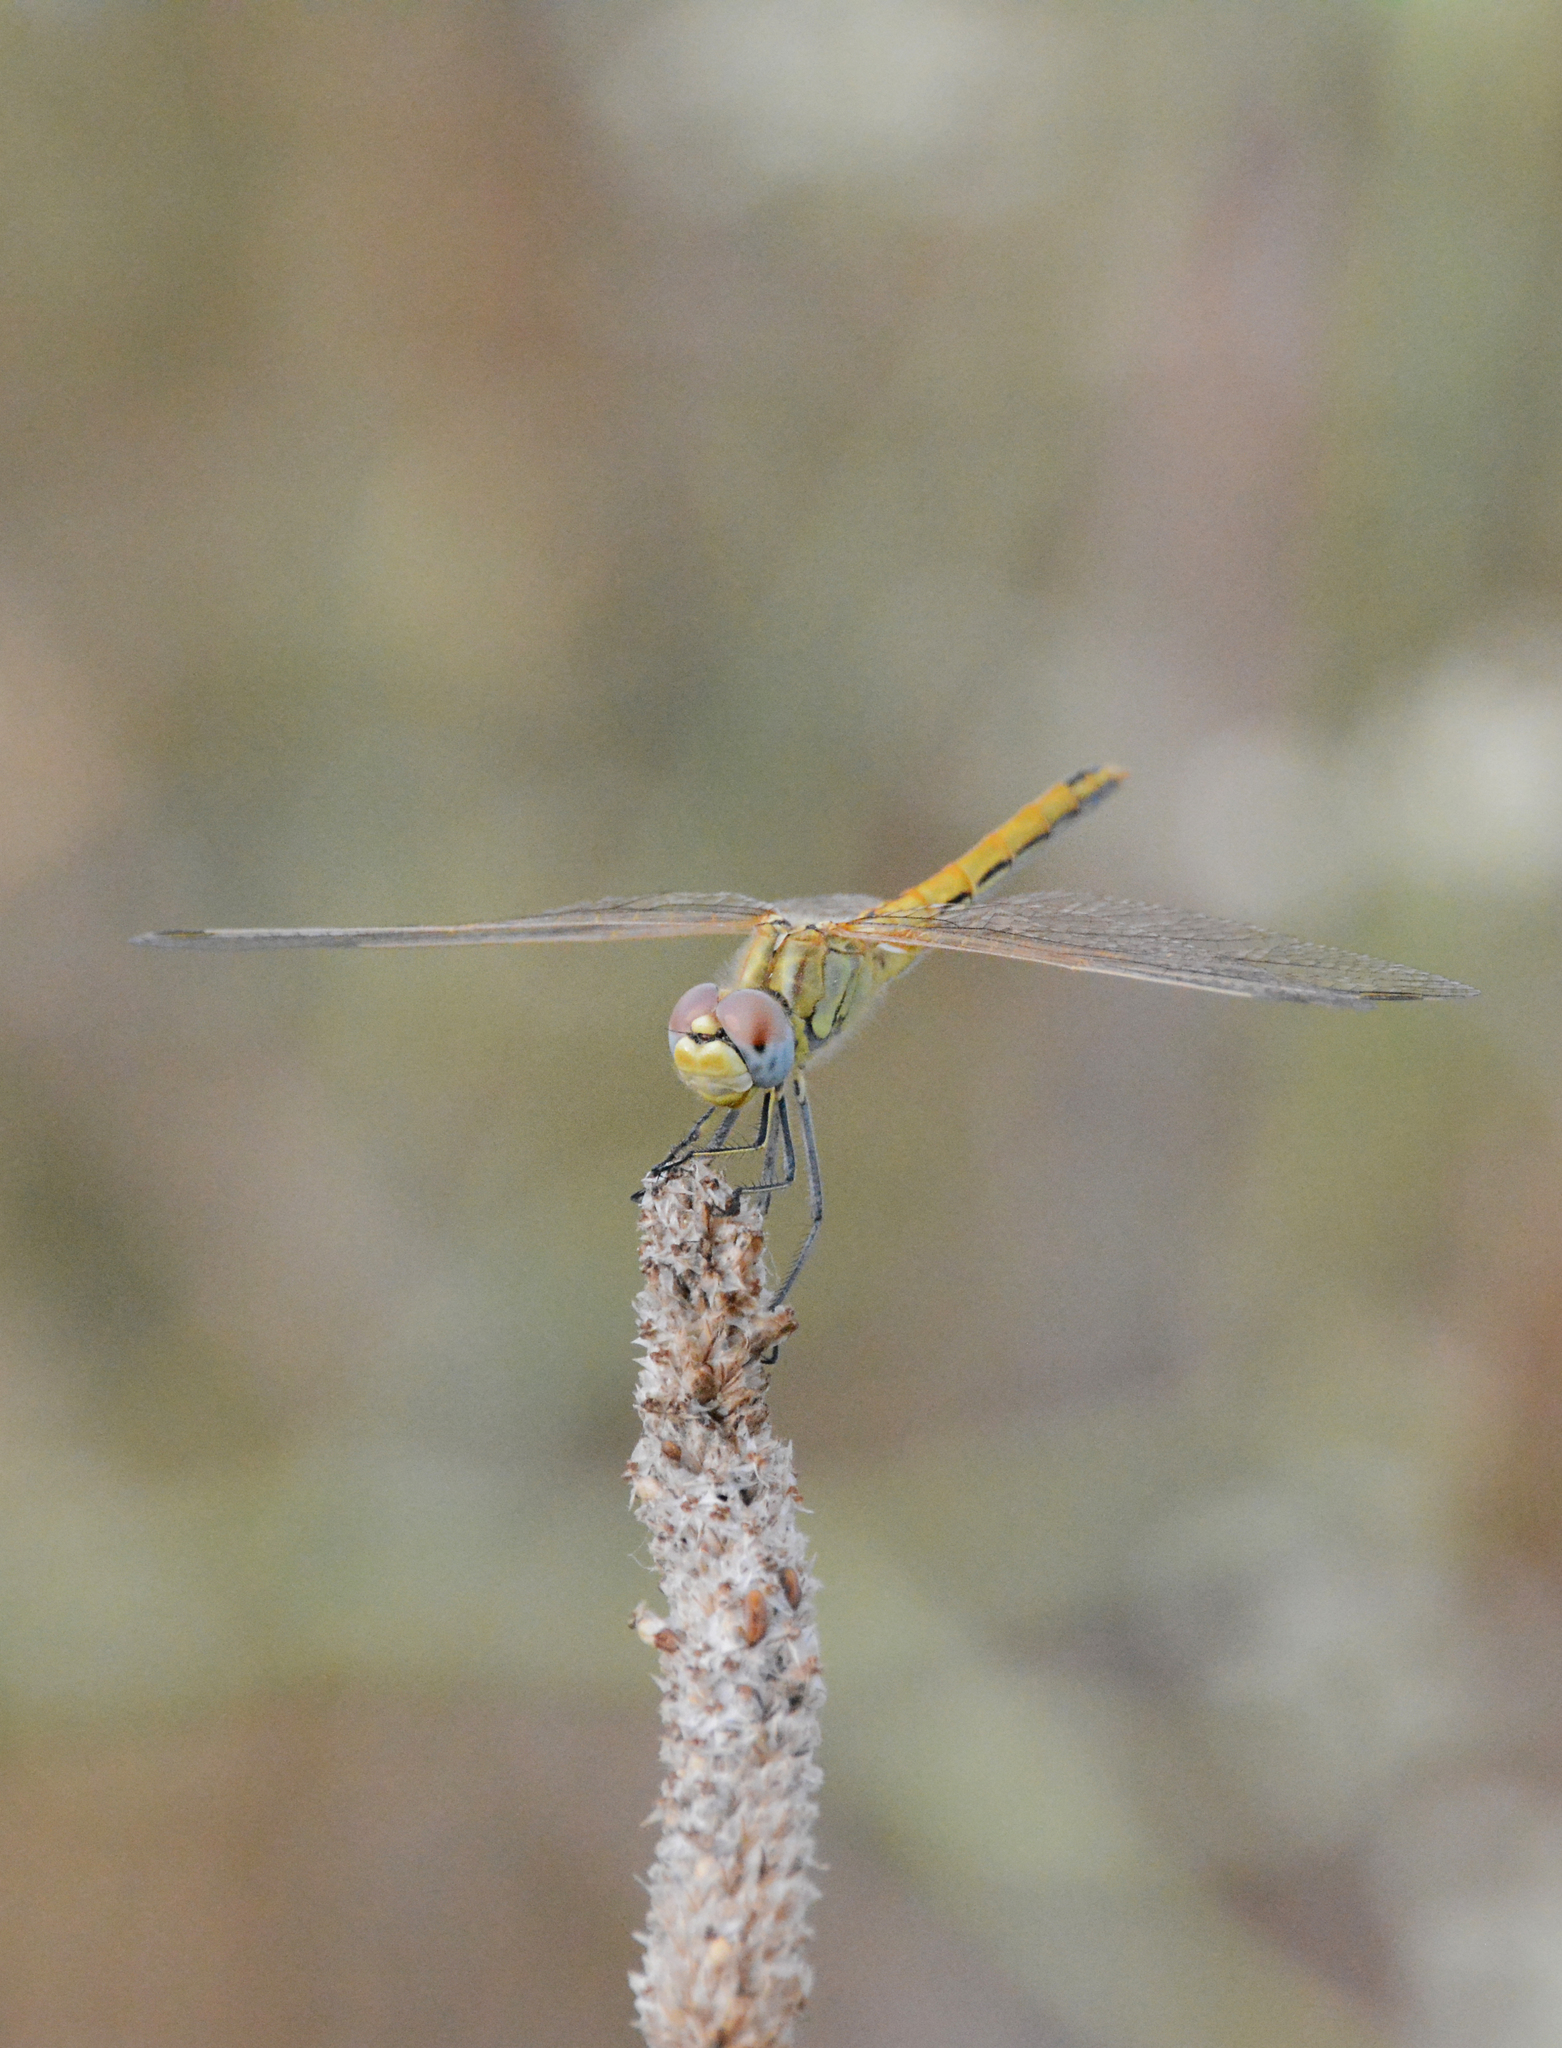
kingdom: Animalia
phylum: Arthropoda
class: Insecta
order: Odonata
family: Libellulidae
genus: Sympetrum
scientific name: Sympetrum fonscolombii
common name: Red-veined darter
